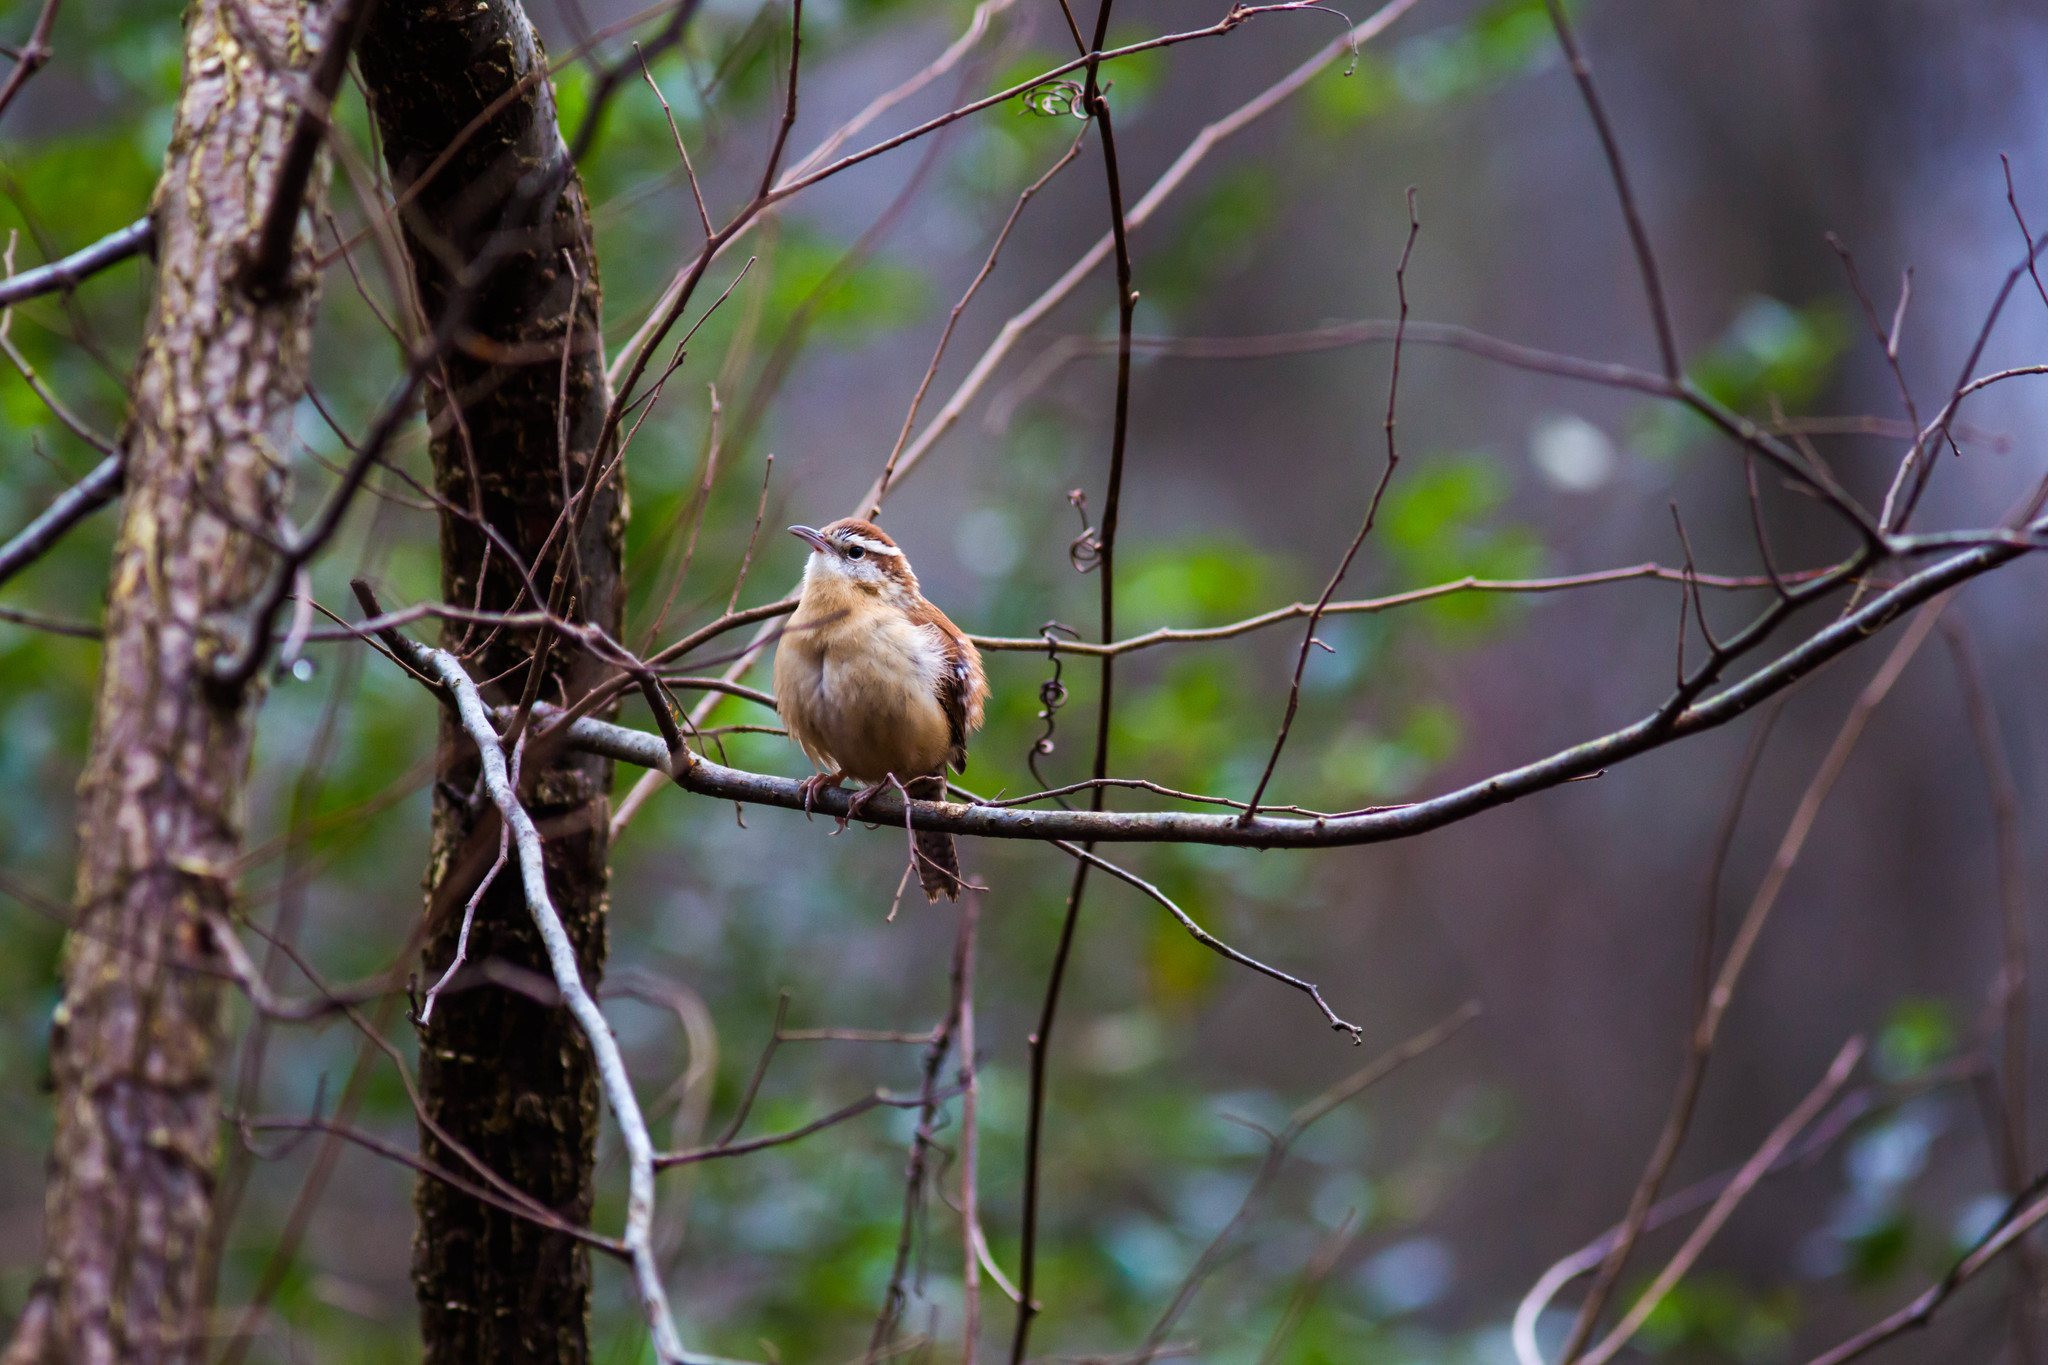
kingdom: Animalia
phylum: Chordata
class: Aves
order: Passeriformes
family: Troglodytidae
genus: Thryothorus
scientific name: Thryothorus ludovicianus
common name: Carolina wren
